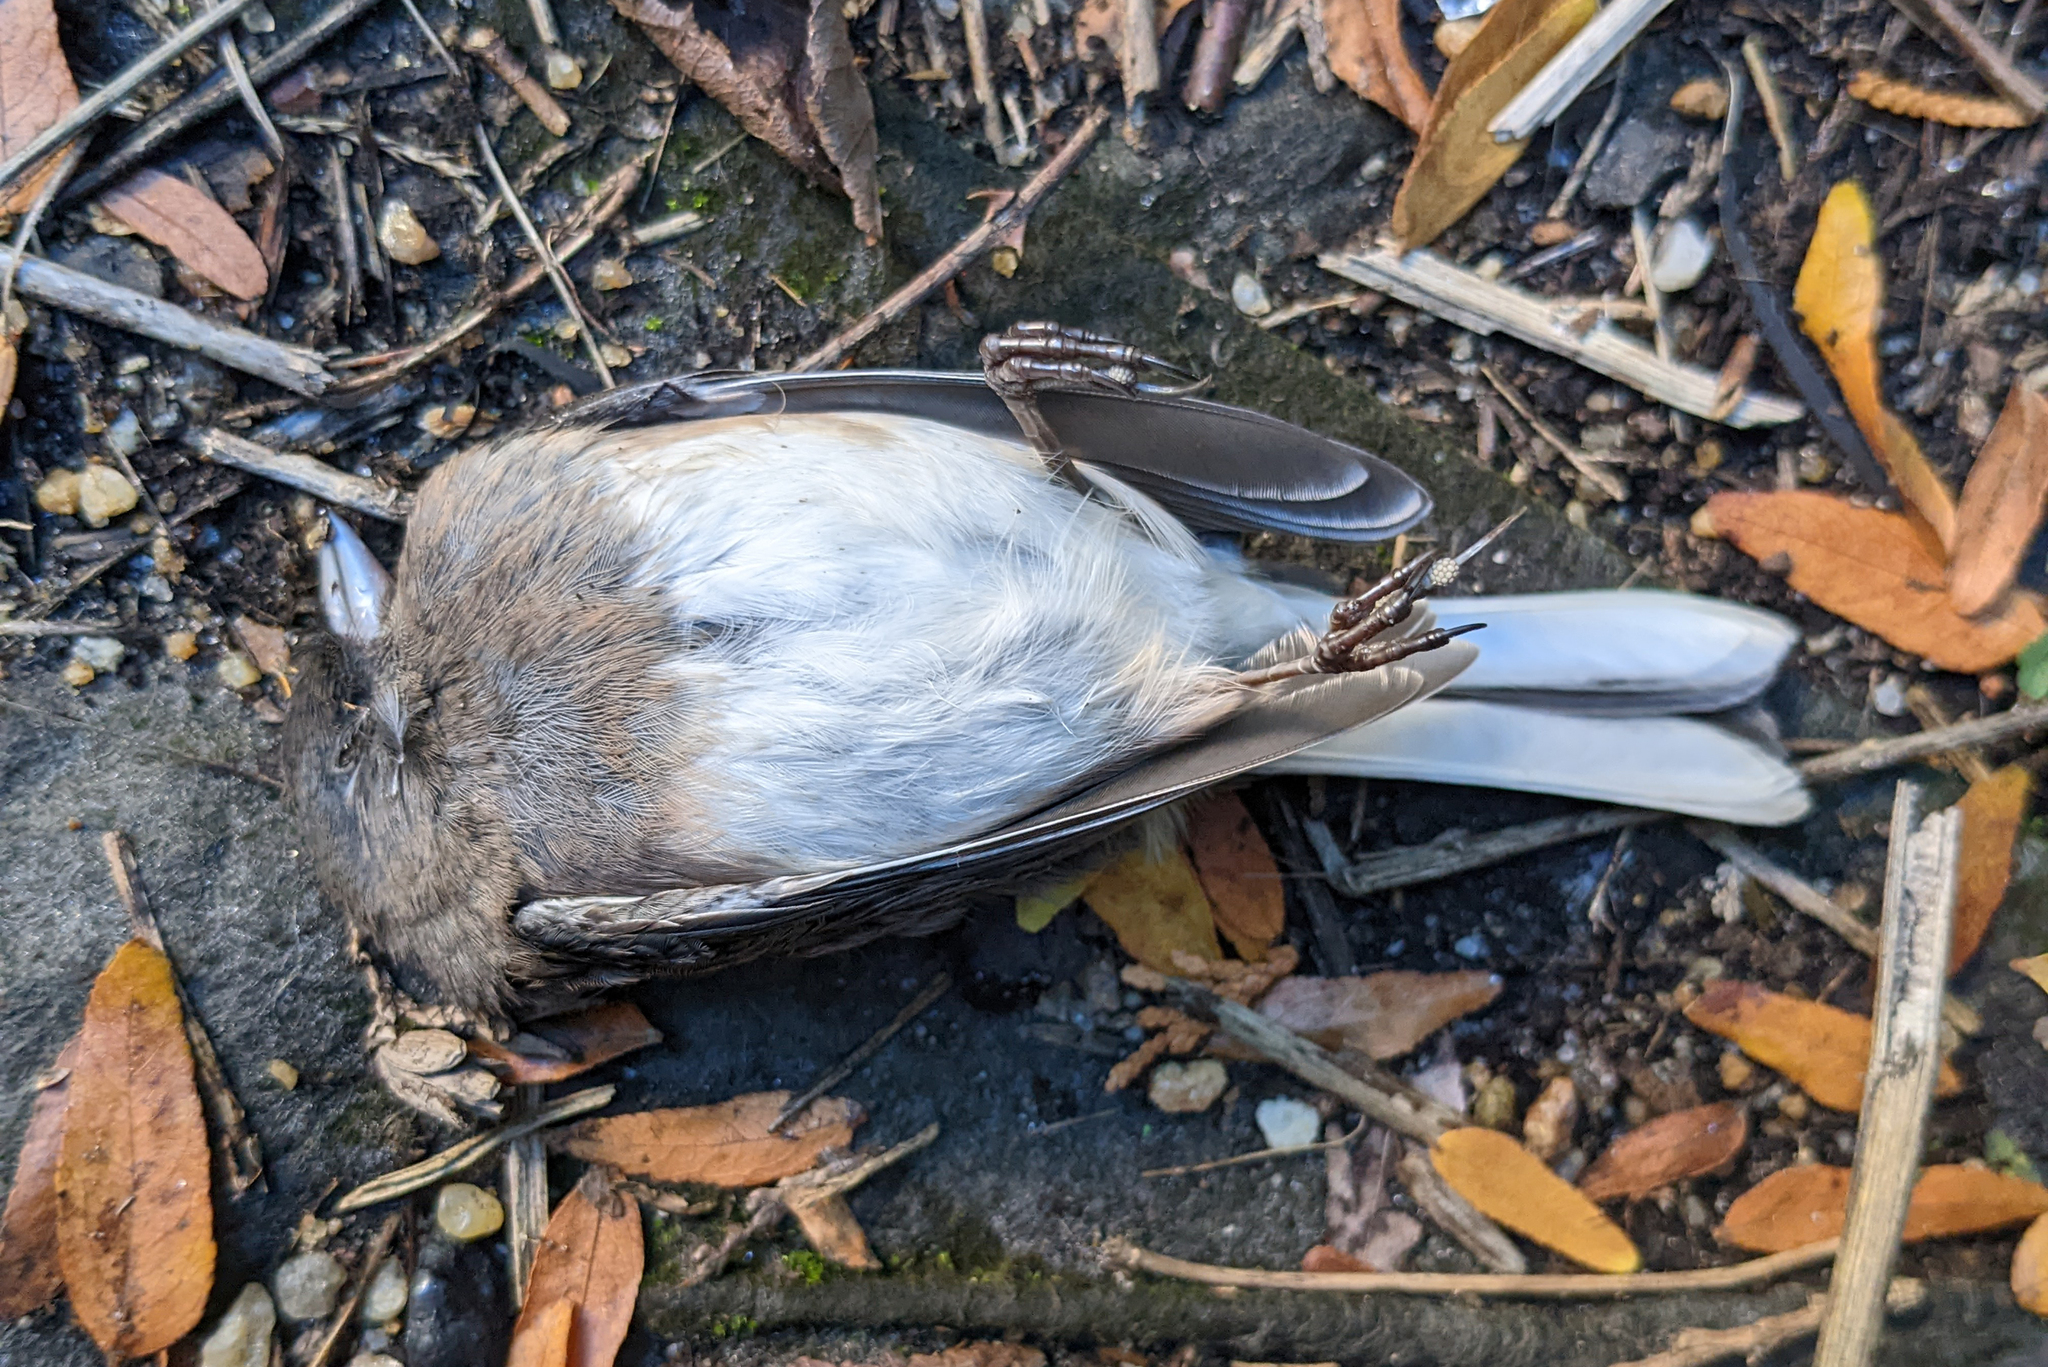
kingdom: Animalia
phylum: Chordata
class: Aves
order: Passeriformes
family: Passerellidae
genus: Junco
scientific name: Junco hyemalis
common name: Dark-eyed junco
